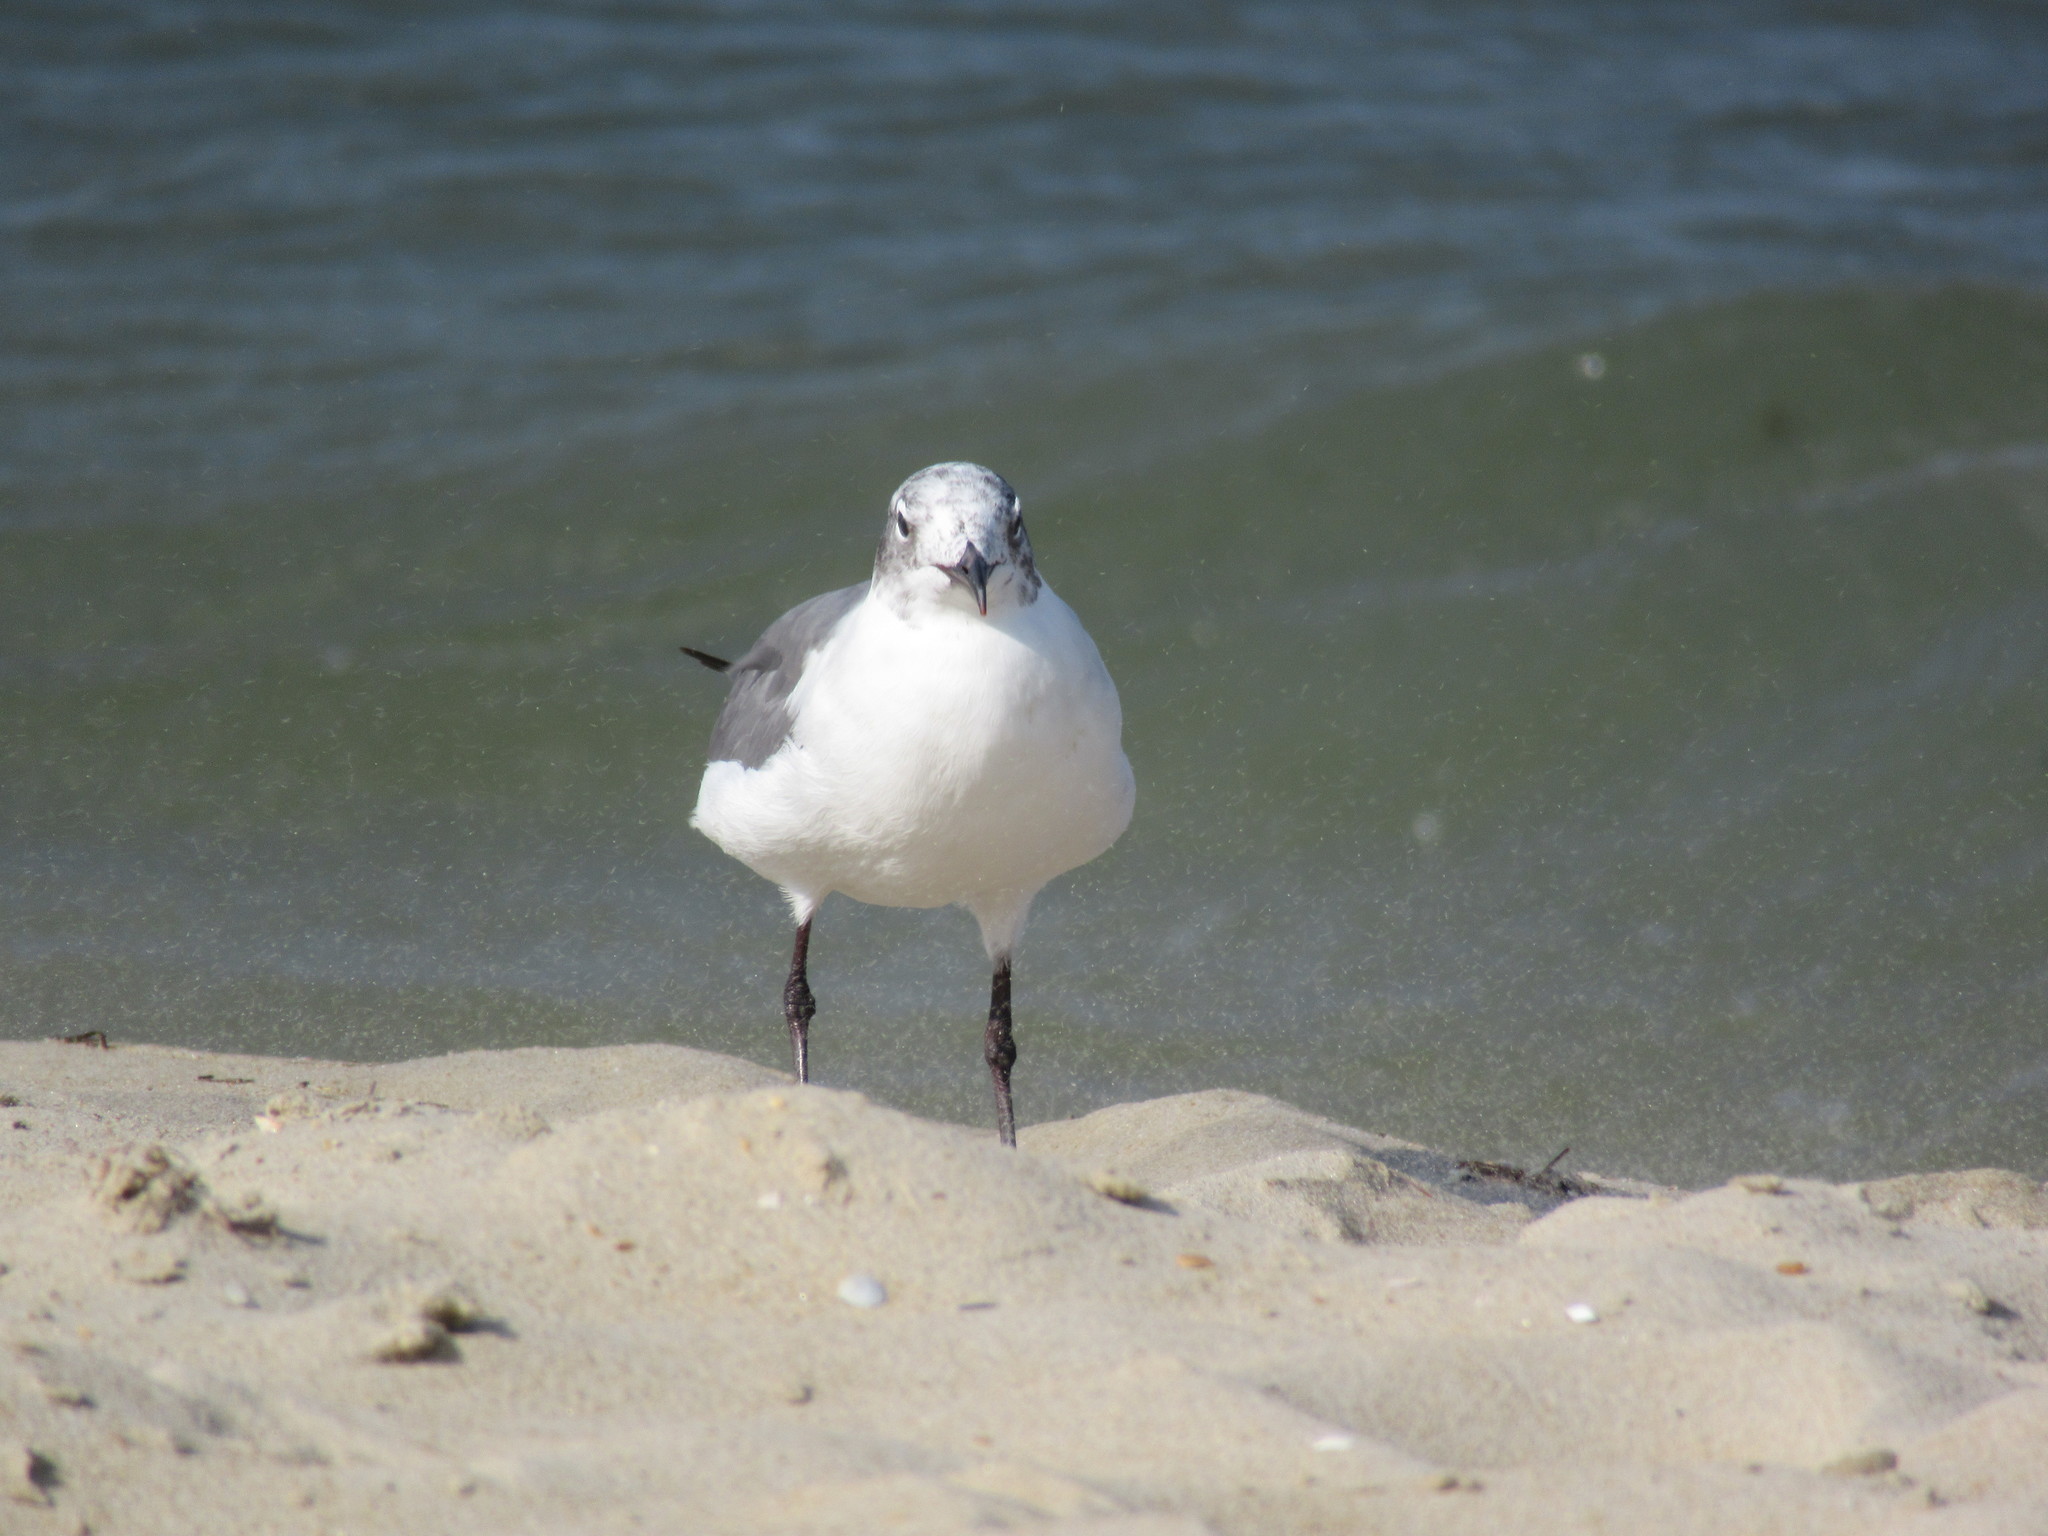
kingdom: Animalia
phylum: Chordata
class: Aves
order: Charadriiformes
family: Laridae
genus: Leucophaeus
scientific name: Leucophaeus atricilla
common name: Laughing gull
